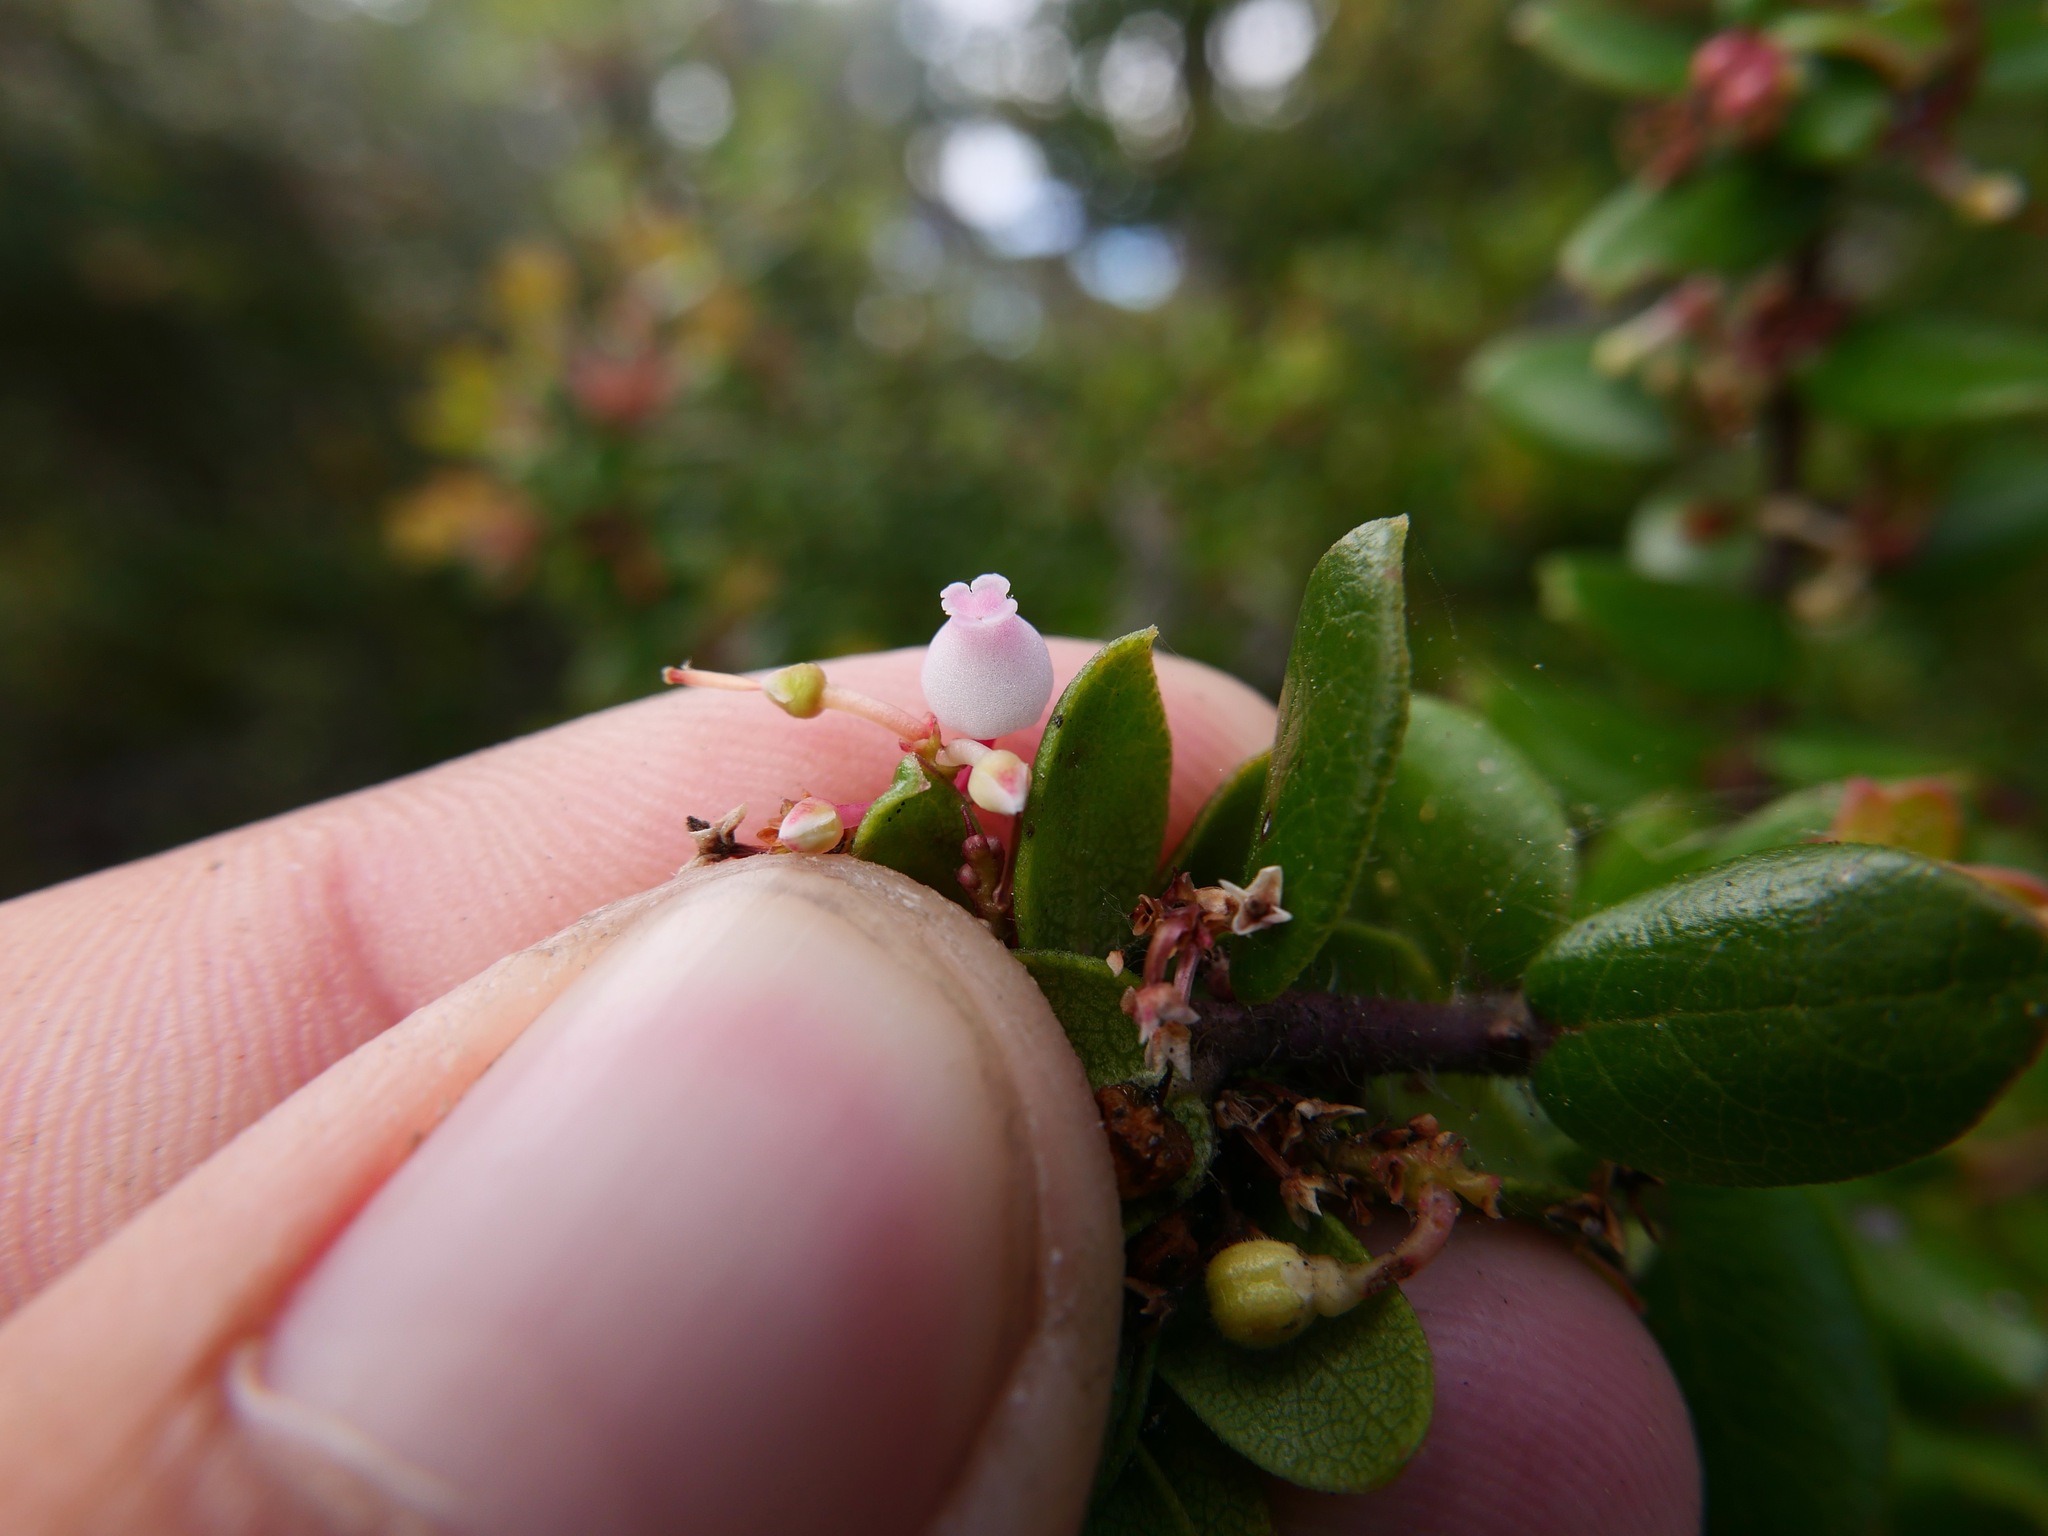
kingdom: Plantae
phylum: Tracheophyta
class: Magnoliopsida
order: Ericales
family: Ericaceae
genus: Arctostaphylos
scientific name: Arctostaphylos nummularia
